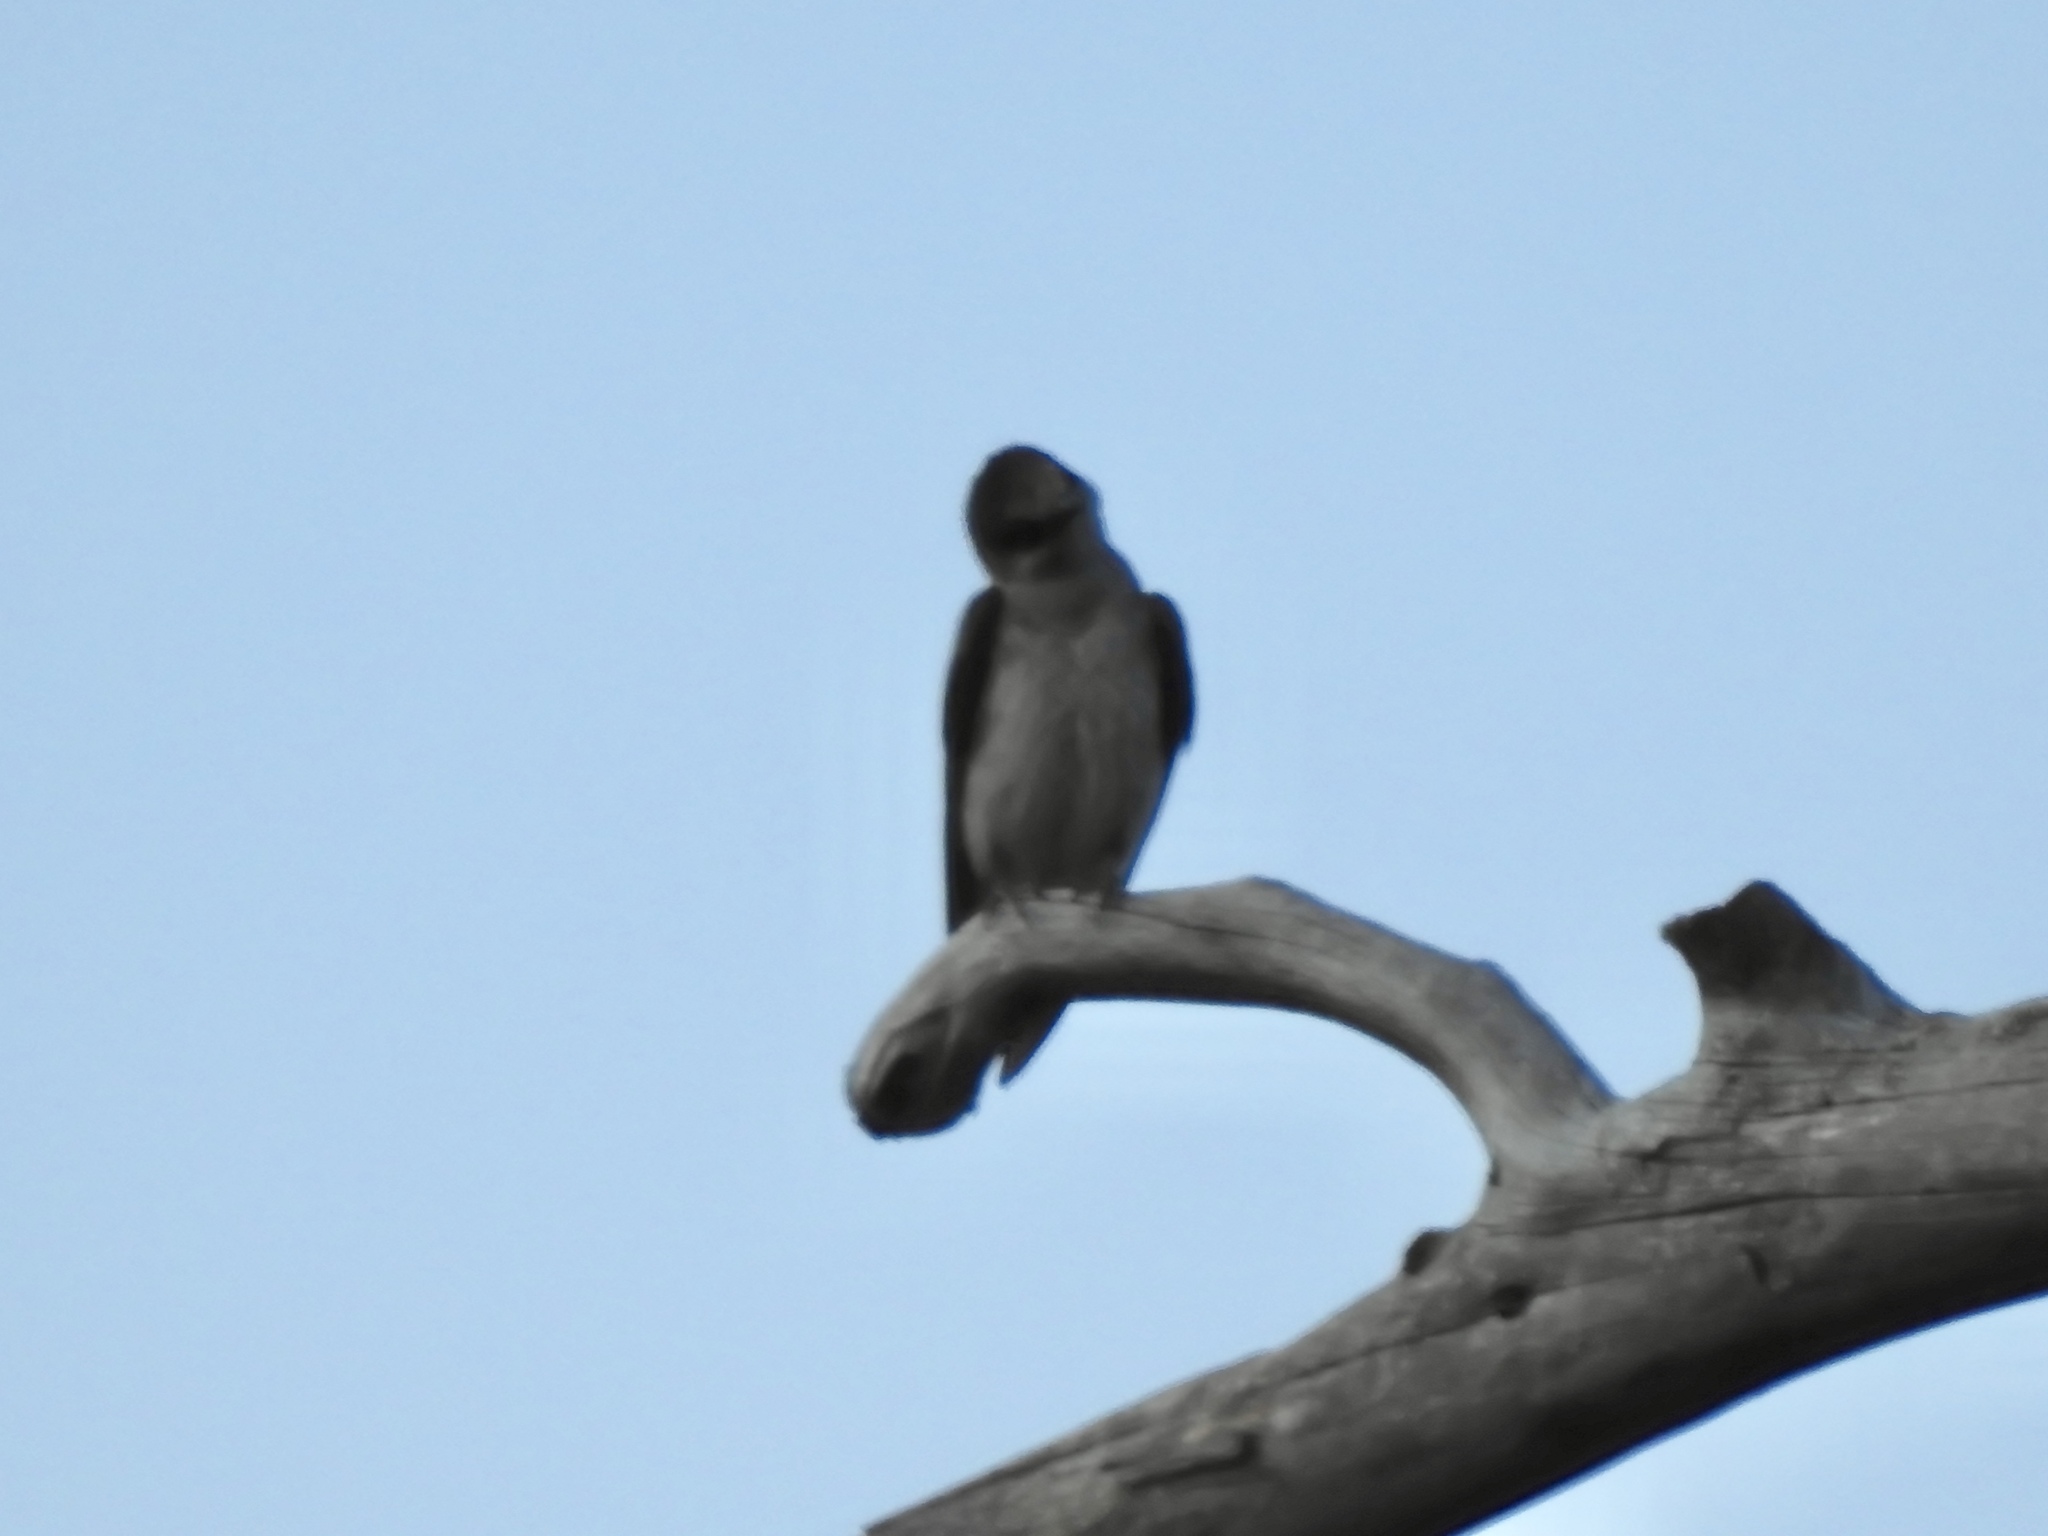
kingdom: Animalia
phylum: Chordata
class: Aves
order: Passeriformes
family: Hirundinidae
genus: Progne
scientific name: Progne subis
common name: Purple martin
